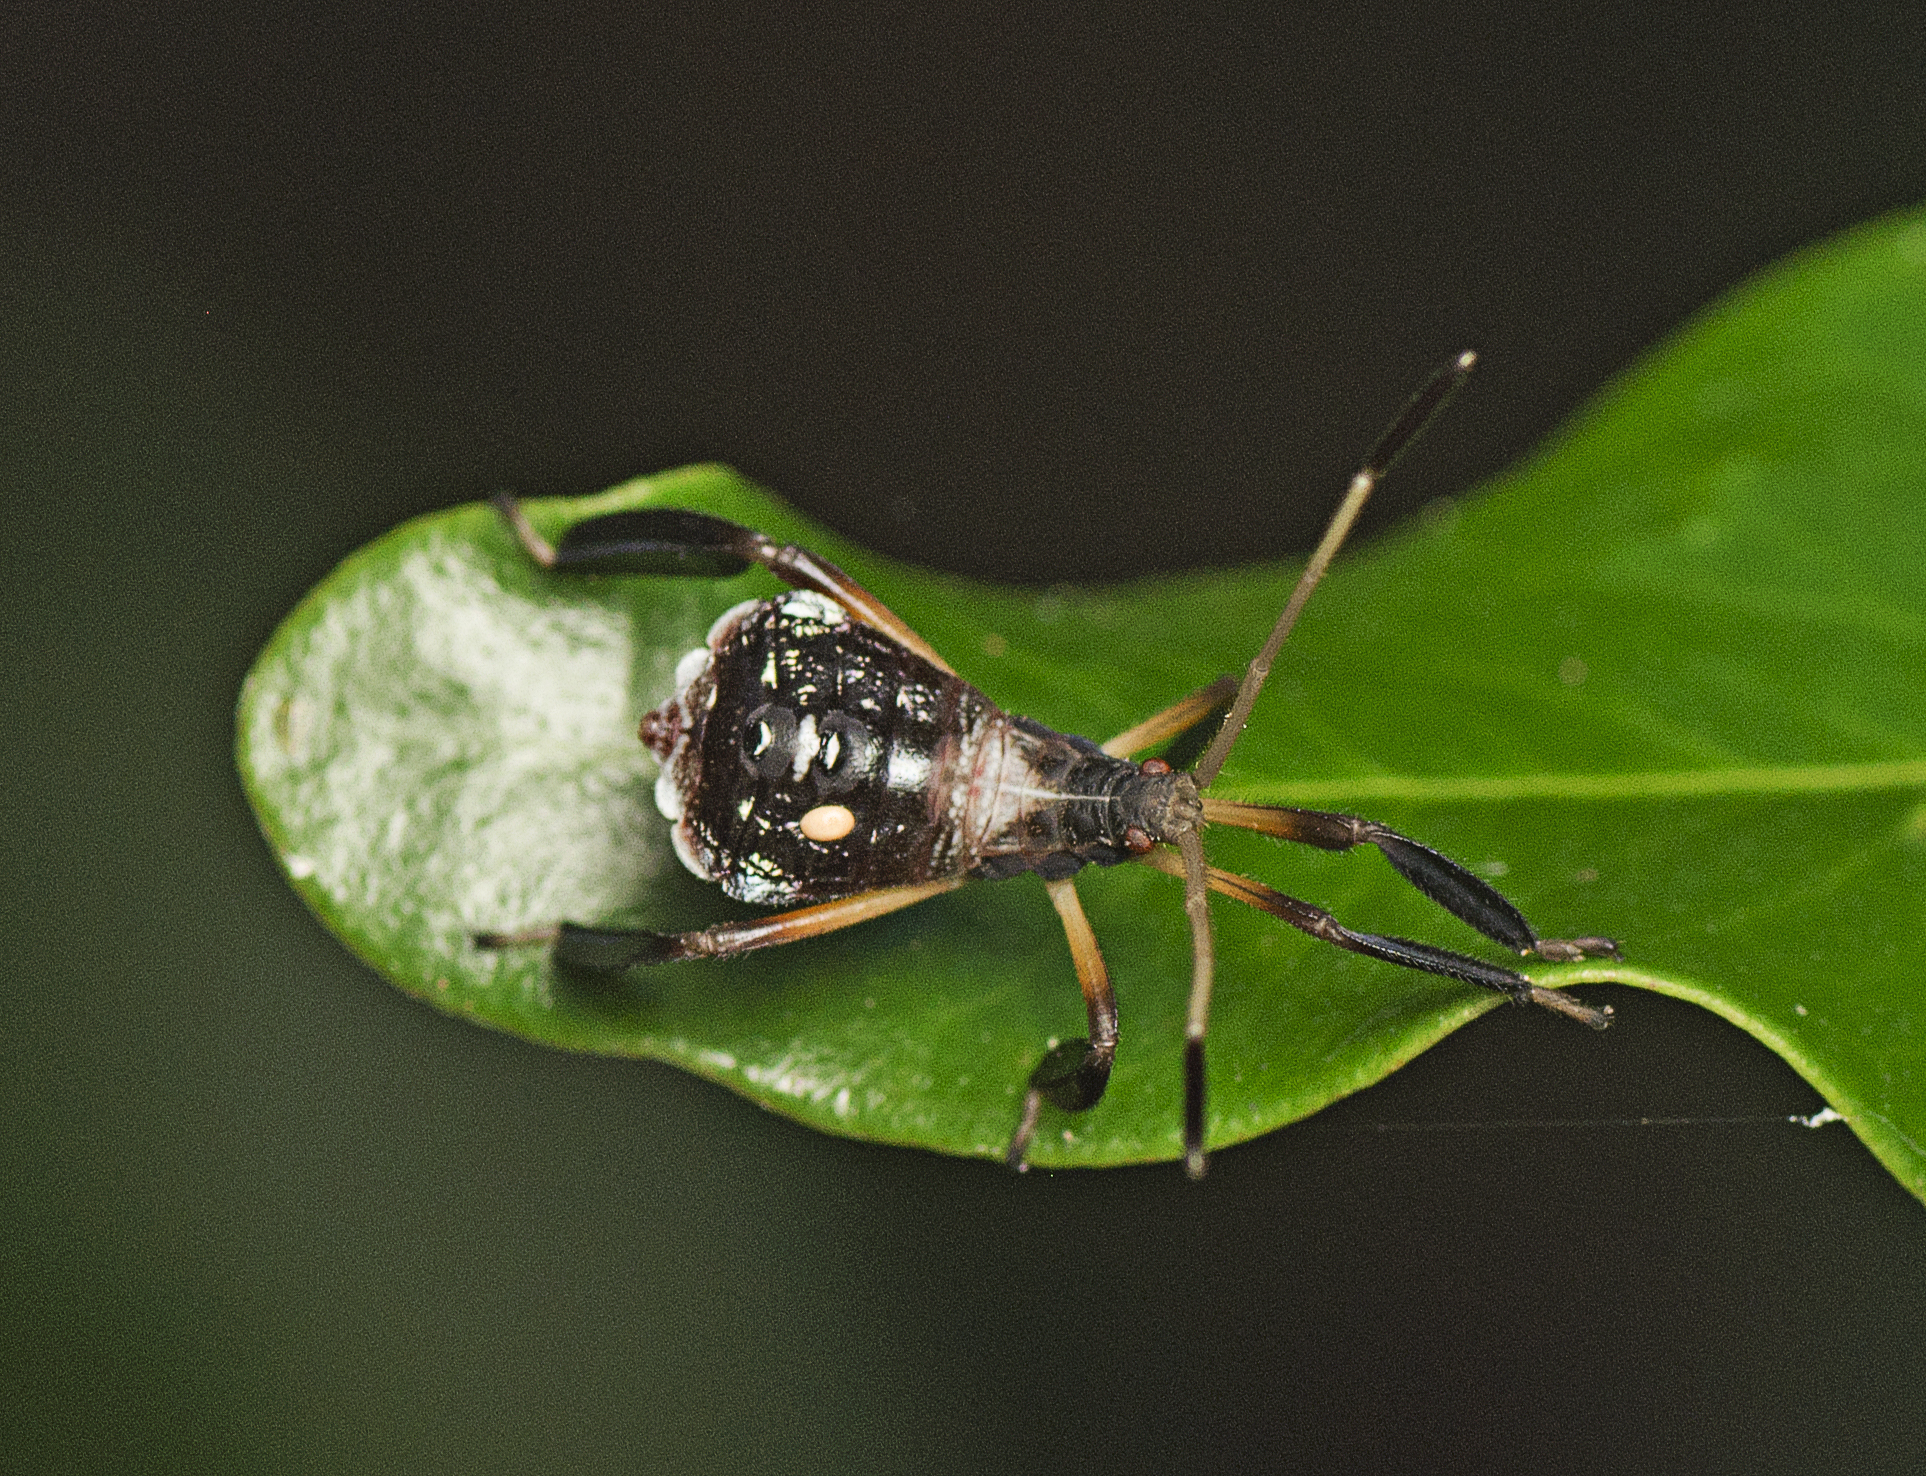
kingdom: Animalia
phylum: Arthropoda
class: Insecta
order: Hemiptera
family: Coreidae
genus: Pternistria
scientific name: Pternistria bispina
